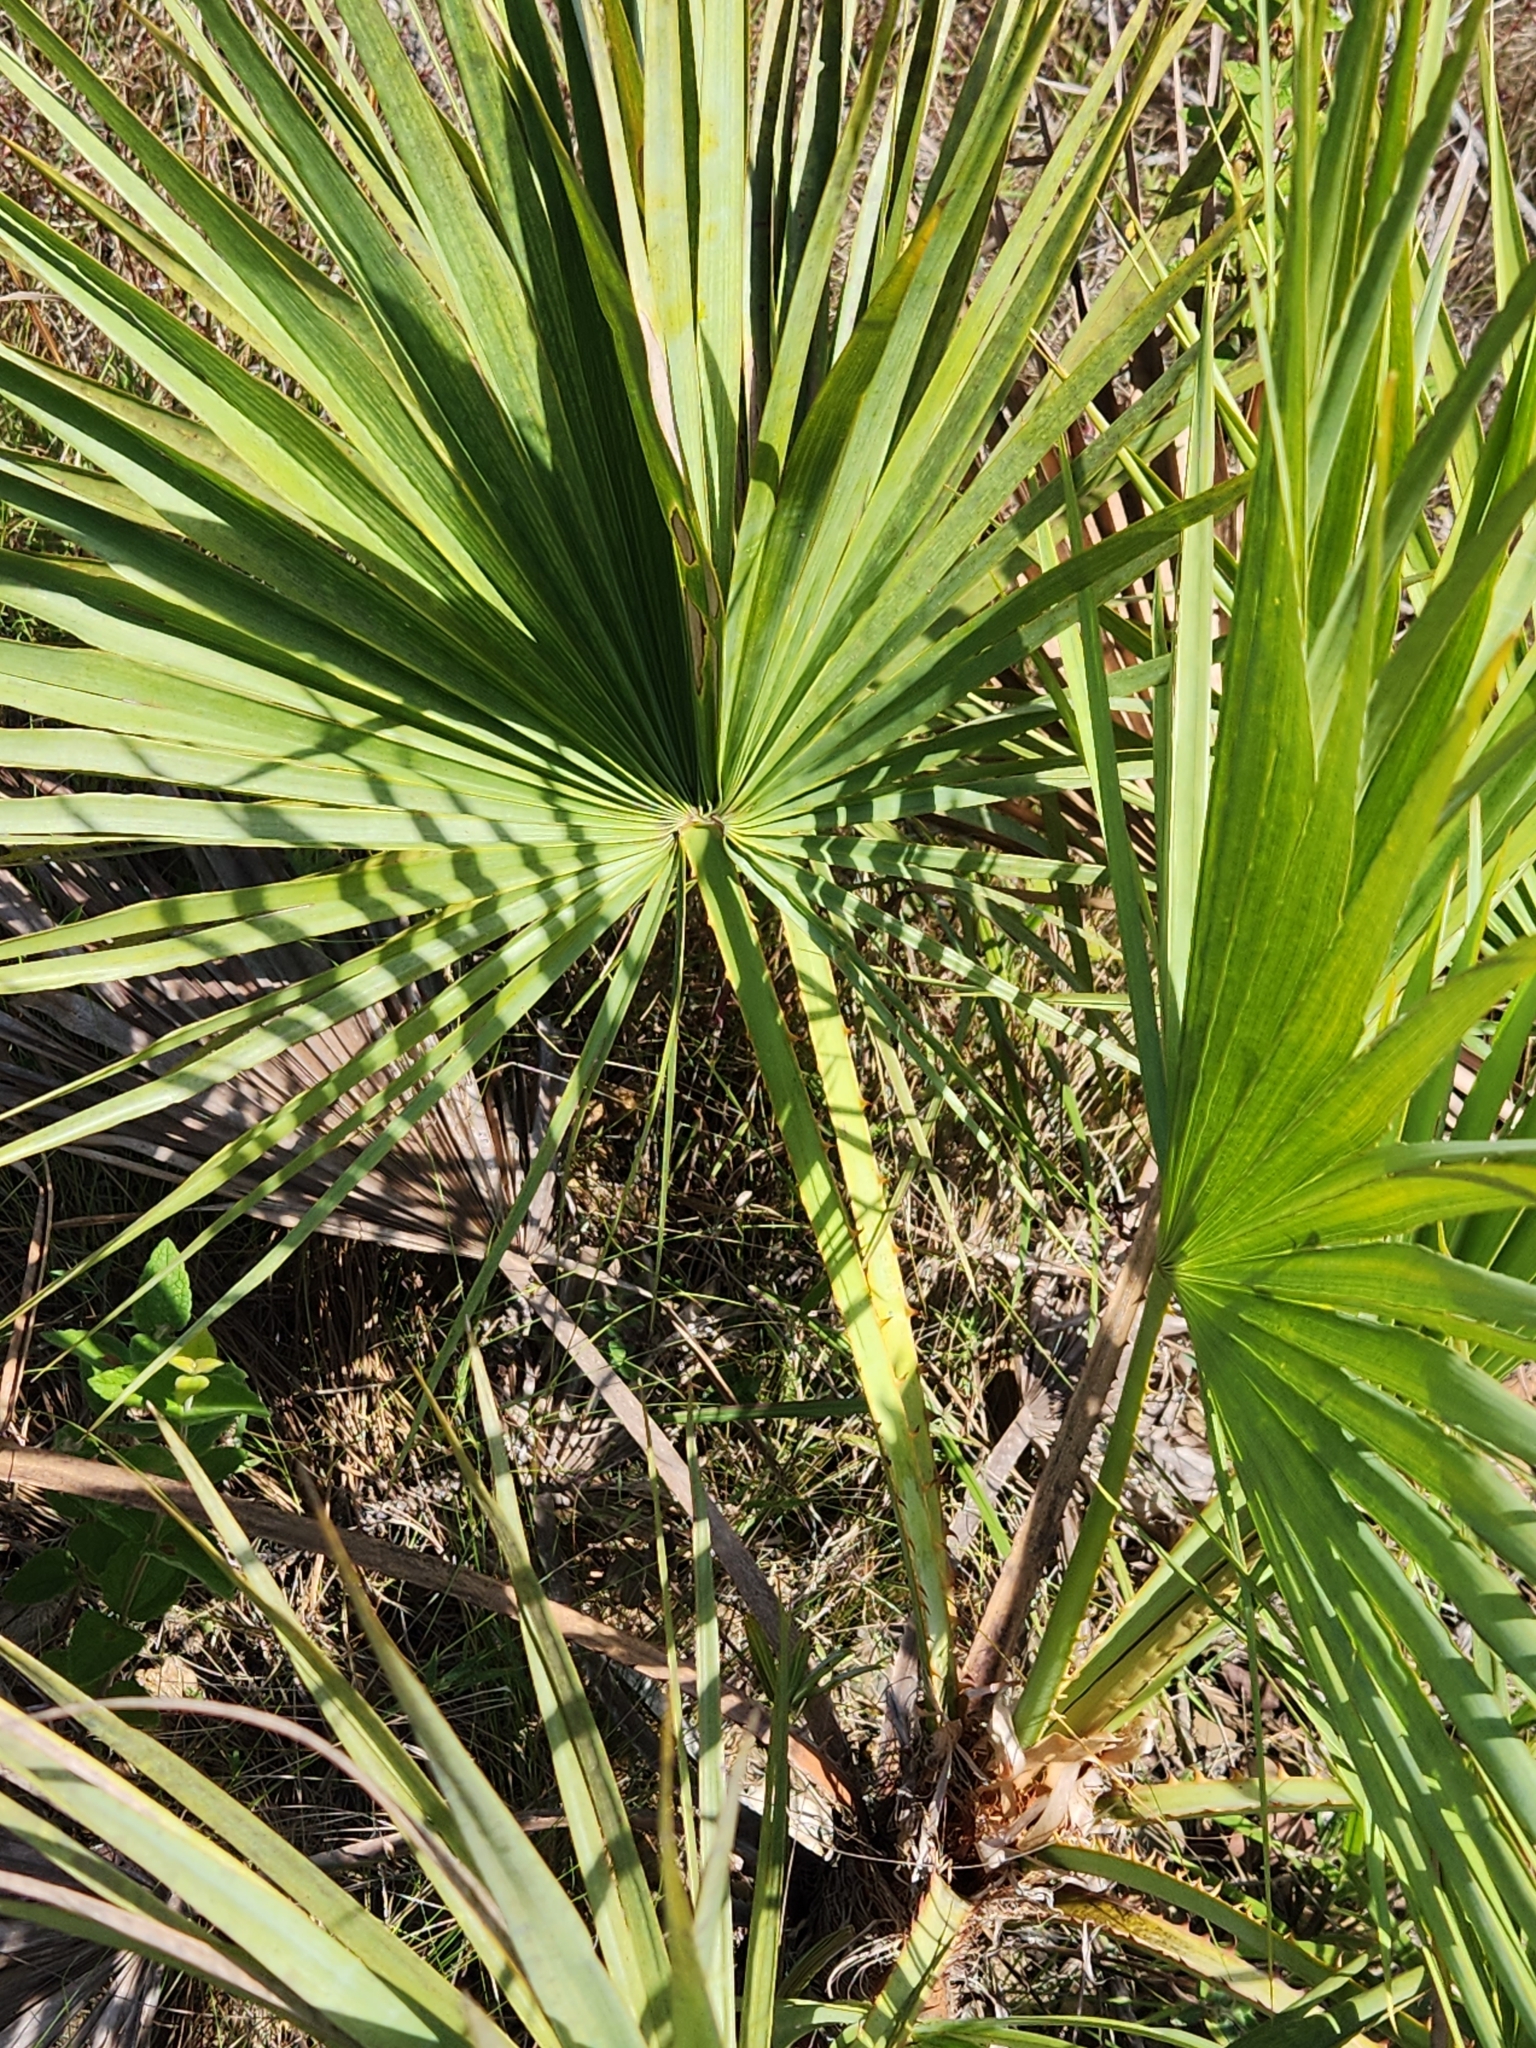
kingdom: Plantae
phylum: Tracheophyta
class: Liliopsida
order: Arecales
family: Arecaceae
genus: Acoelorraphe
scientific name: Acoelorraphe wrightii
